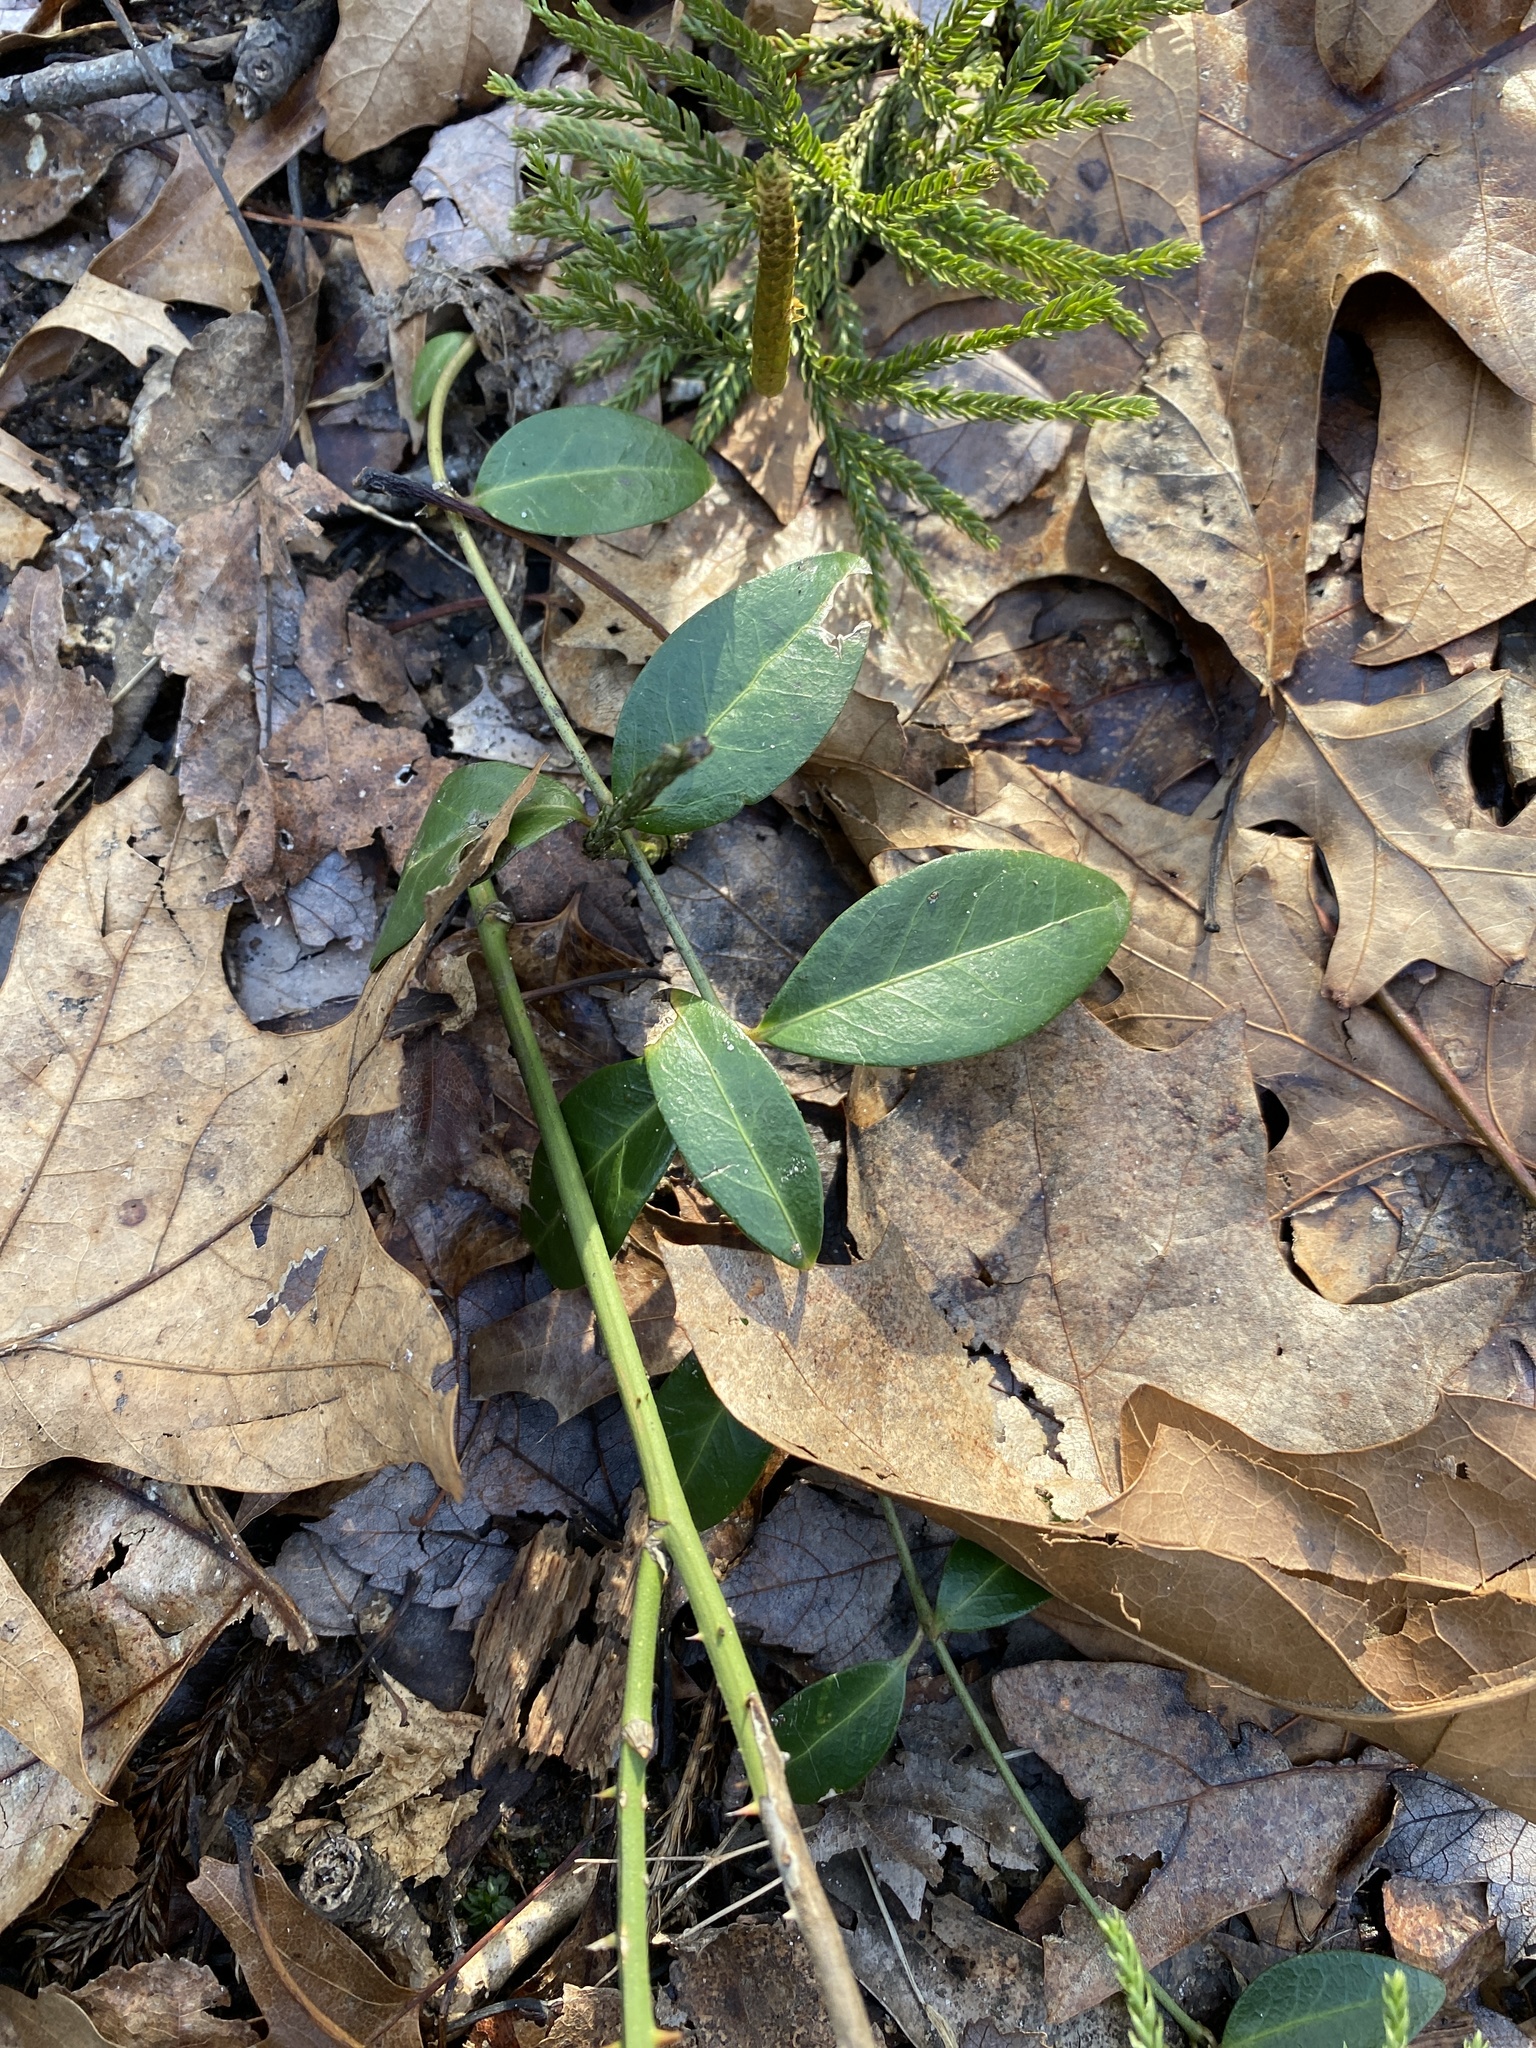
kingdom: Plantae
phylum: Tracheophyta
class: Magnoliopsida
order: Gentianales
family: Apocynaceae
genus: Vinca
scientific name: Vinca minor
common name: Lesser periwinkle
